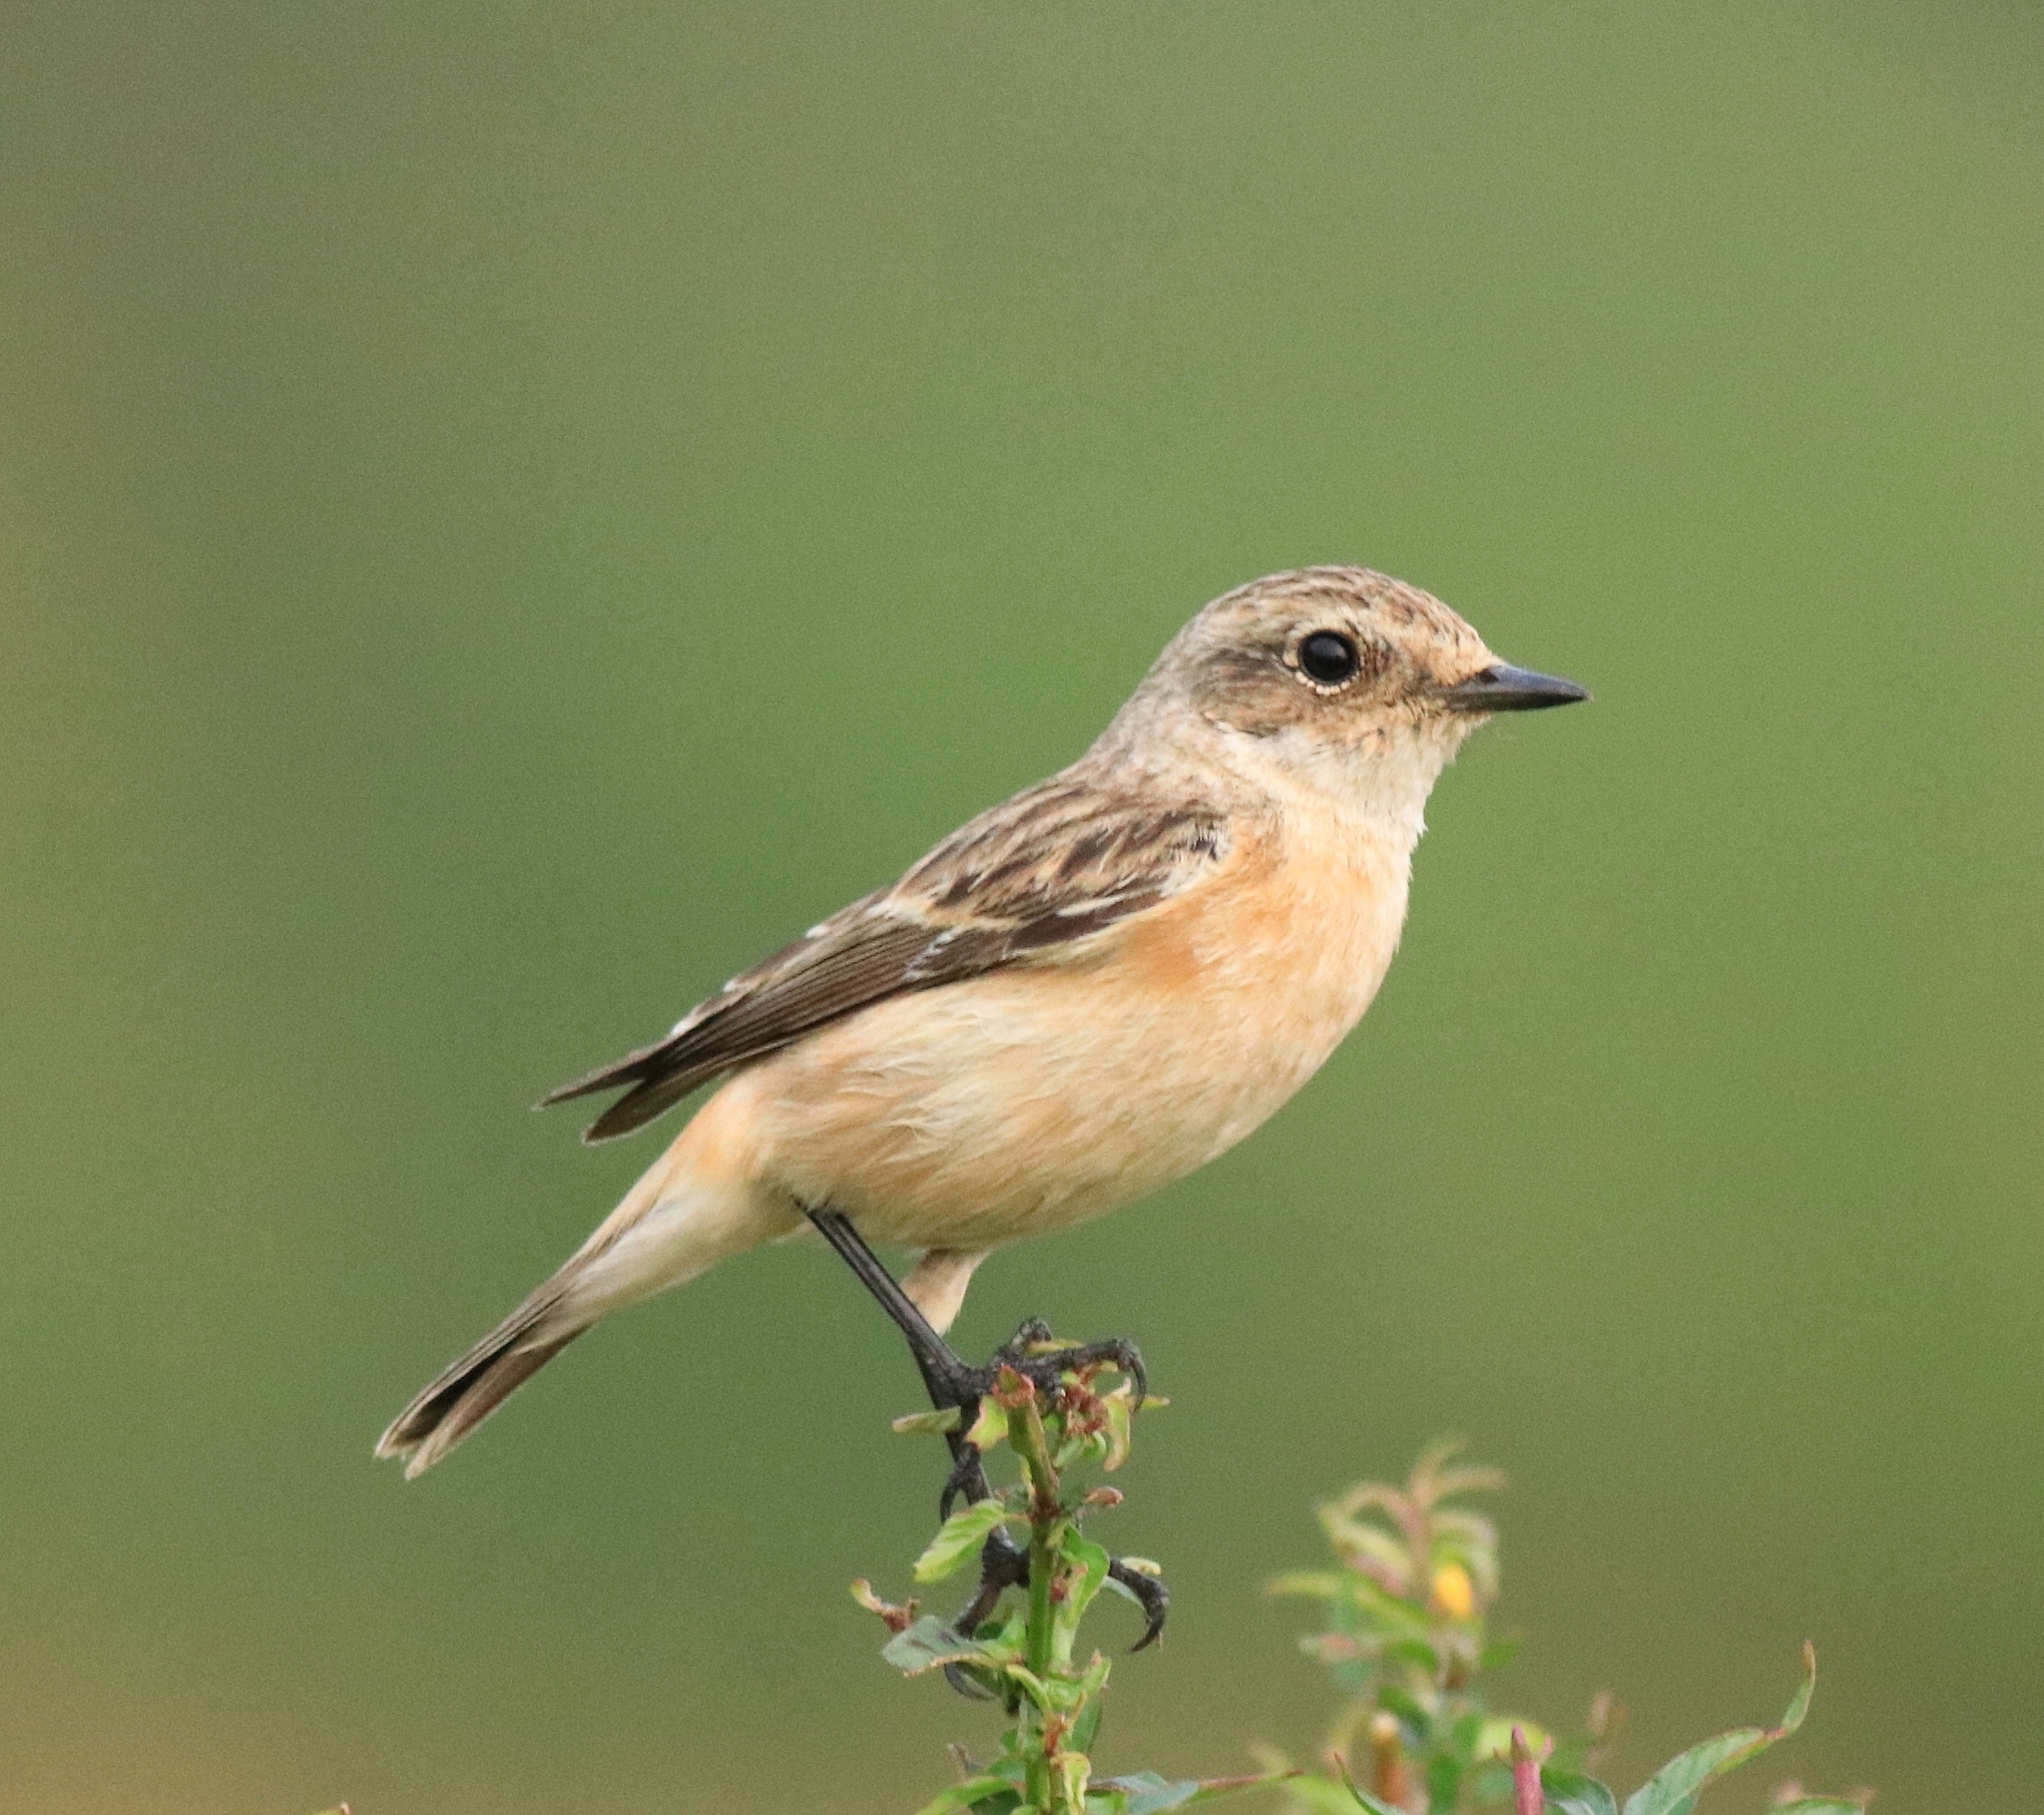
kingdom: Animalia
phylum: Chordata
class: Aves
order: Passeriformes
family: Muscicapidae
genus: Saxicola
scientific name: Saxicola maurus
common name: Siberian stonechat
